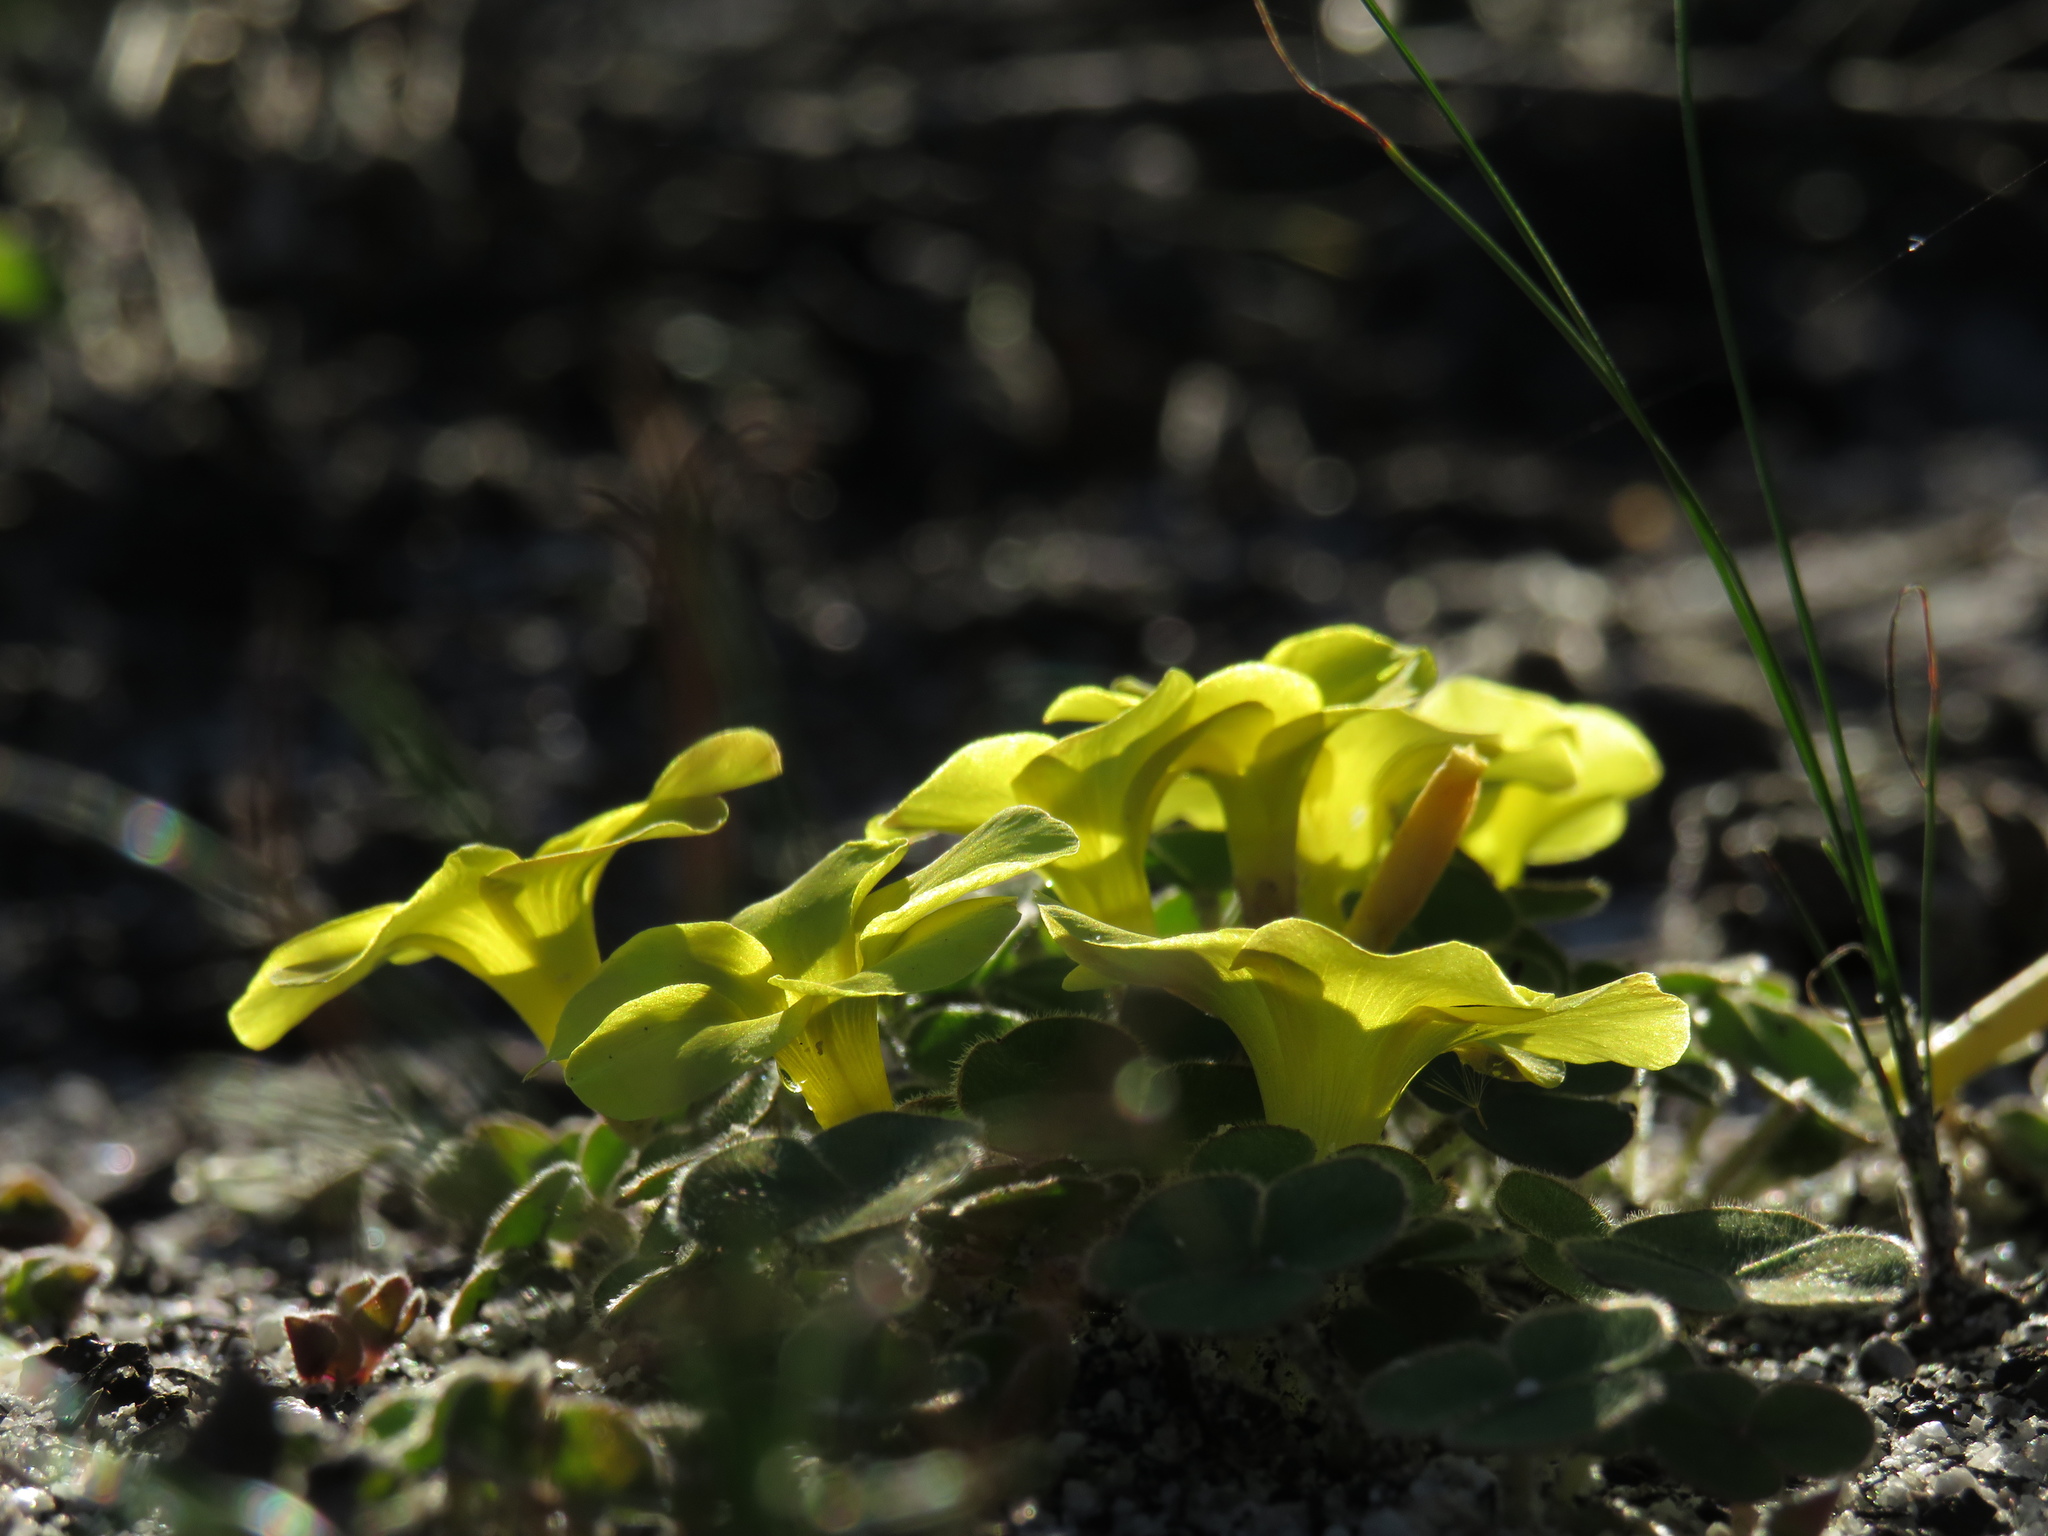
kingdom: Plantae
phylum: Tracheophyta
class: Magnoliopsida
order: Oxalidales
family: Oxalidaceae
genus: Oxalis
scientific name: Oxalis luteola
